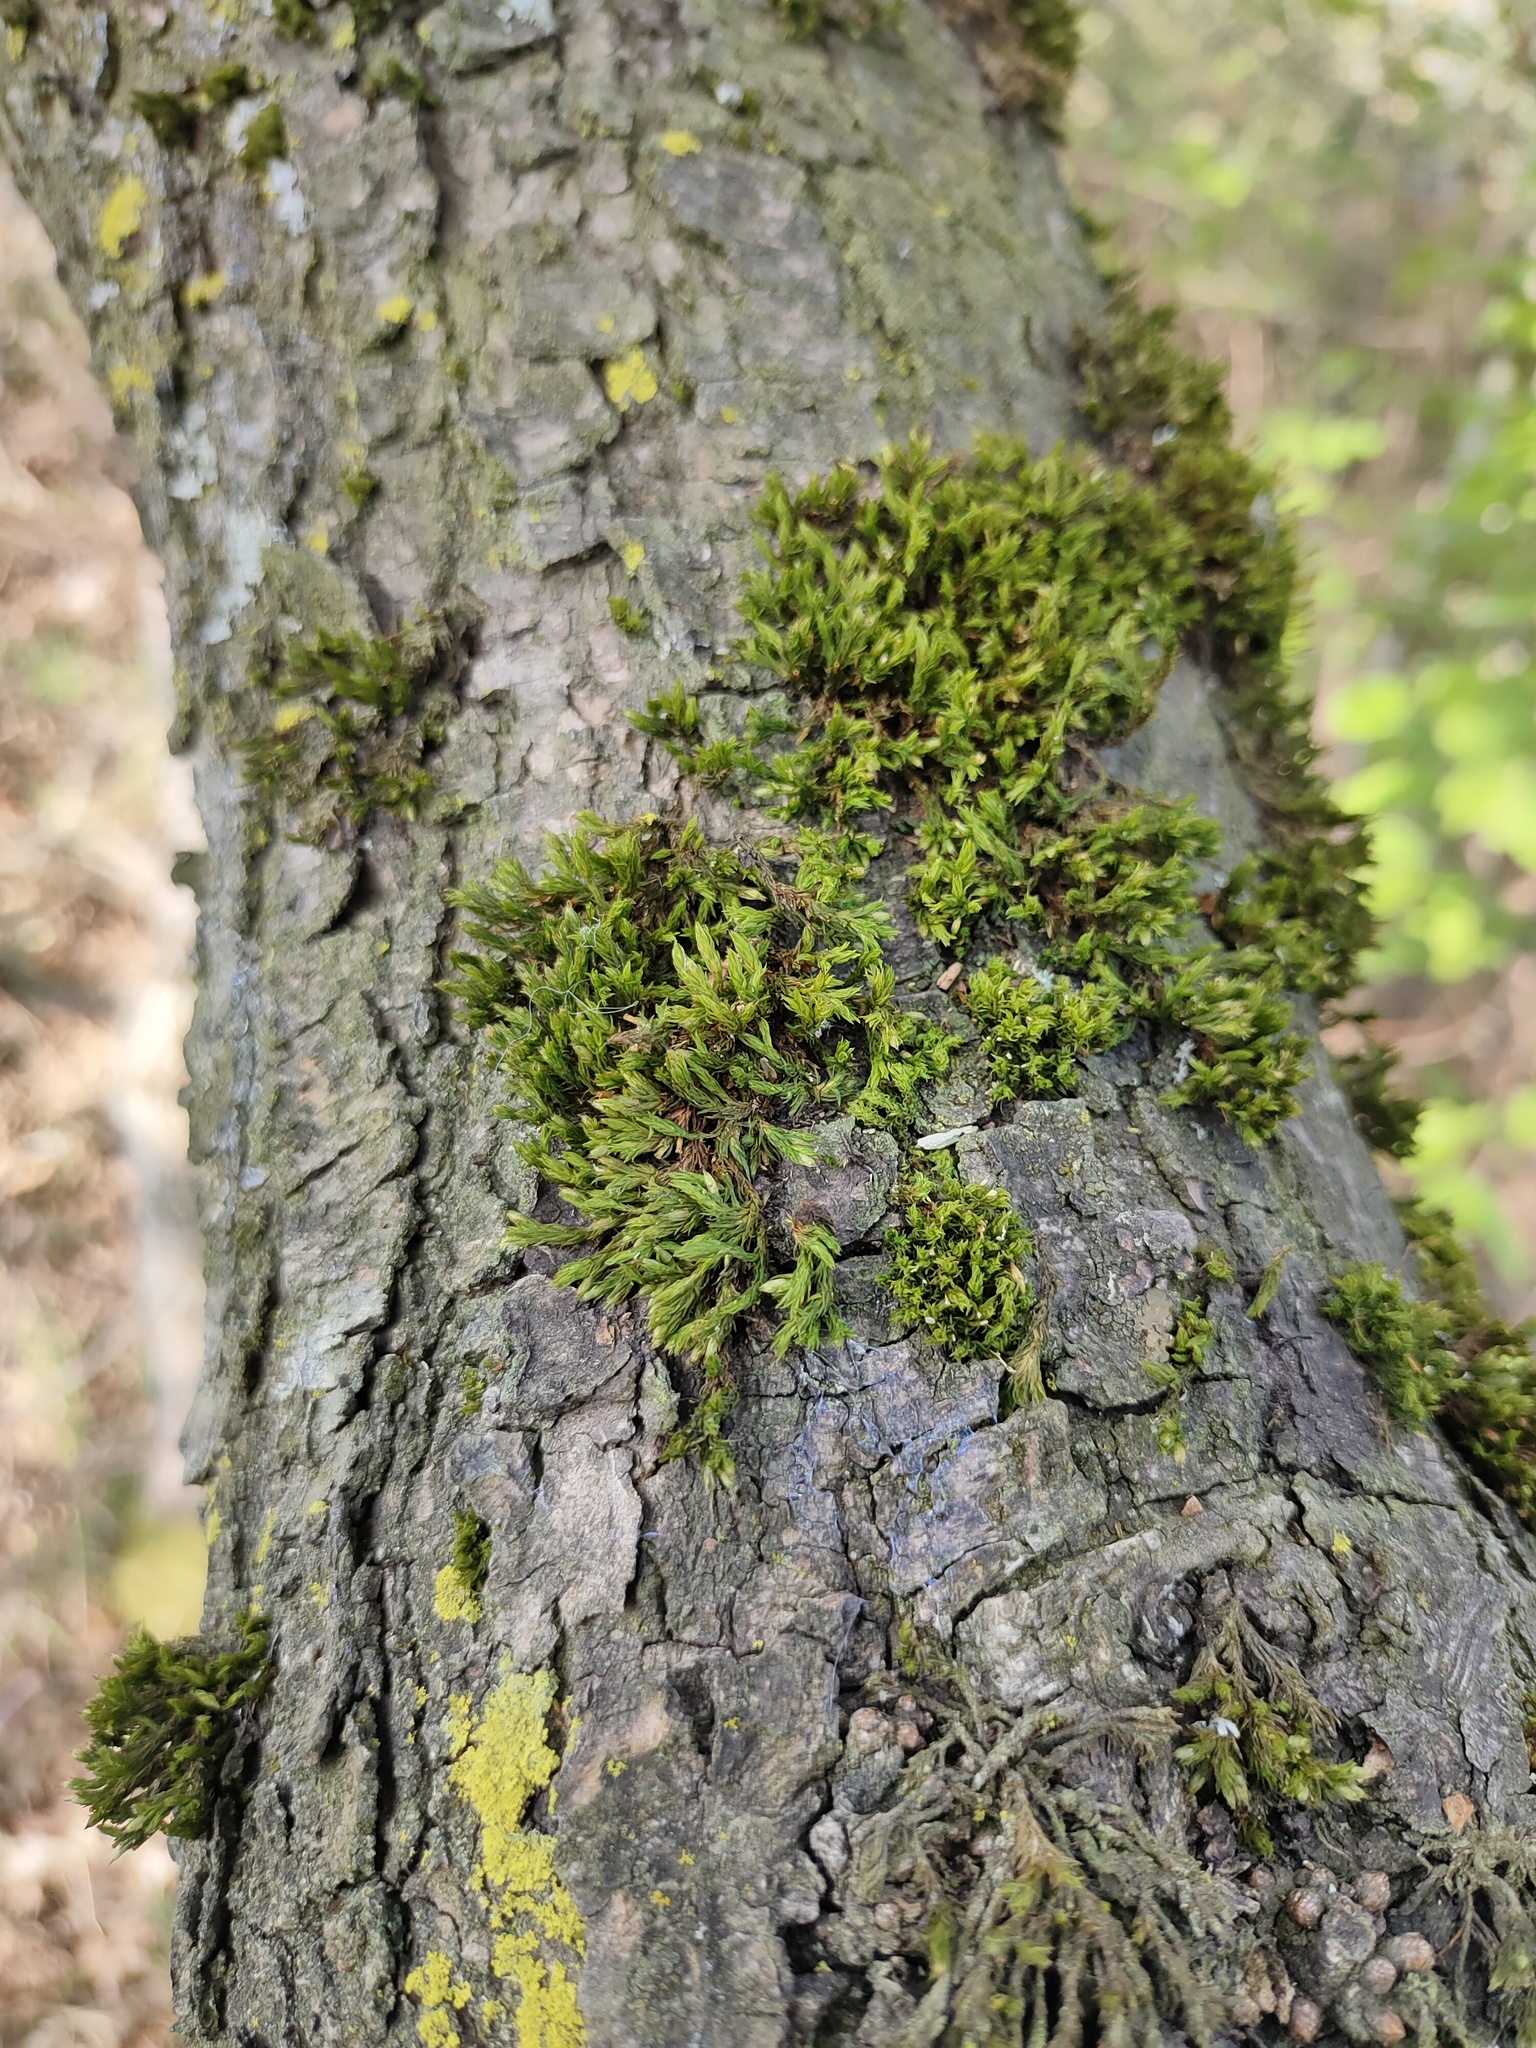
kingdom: Plantae
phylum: Bryophyta
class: Bryopsida
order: Orthotrichales
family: Orthotrichaceae
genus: Lewinskya
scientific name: Lewinskya affinis
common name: Wood bristle-moss
